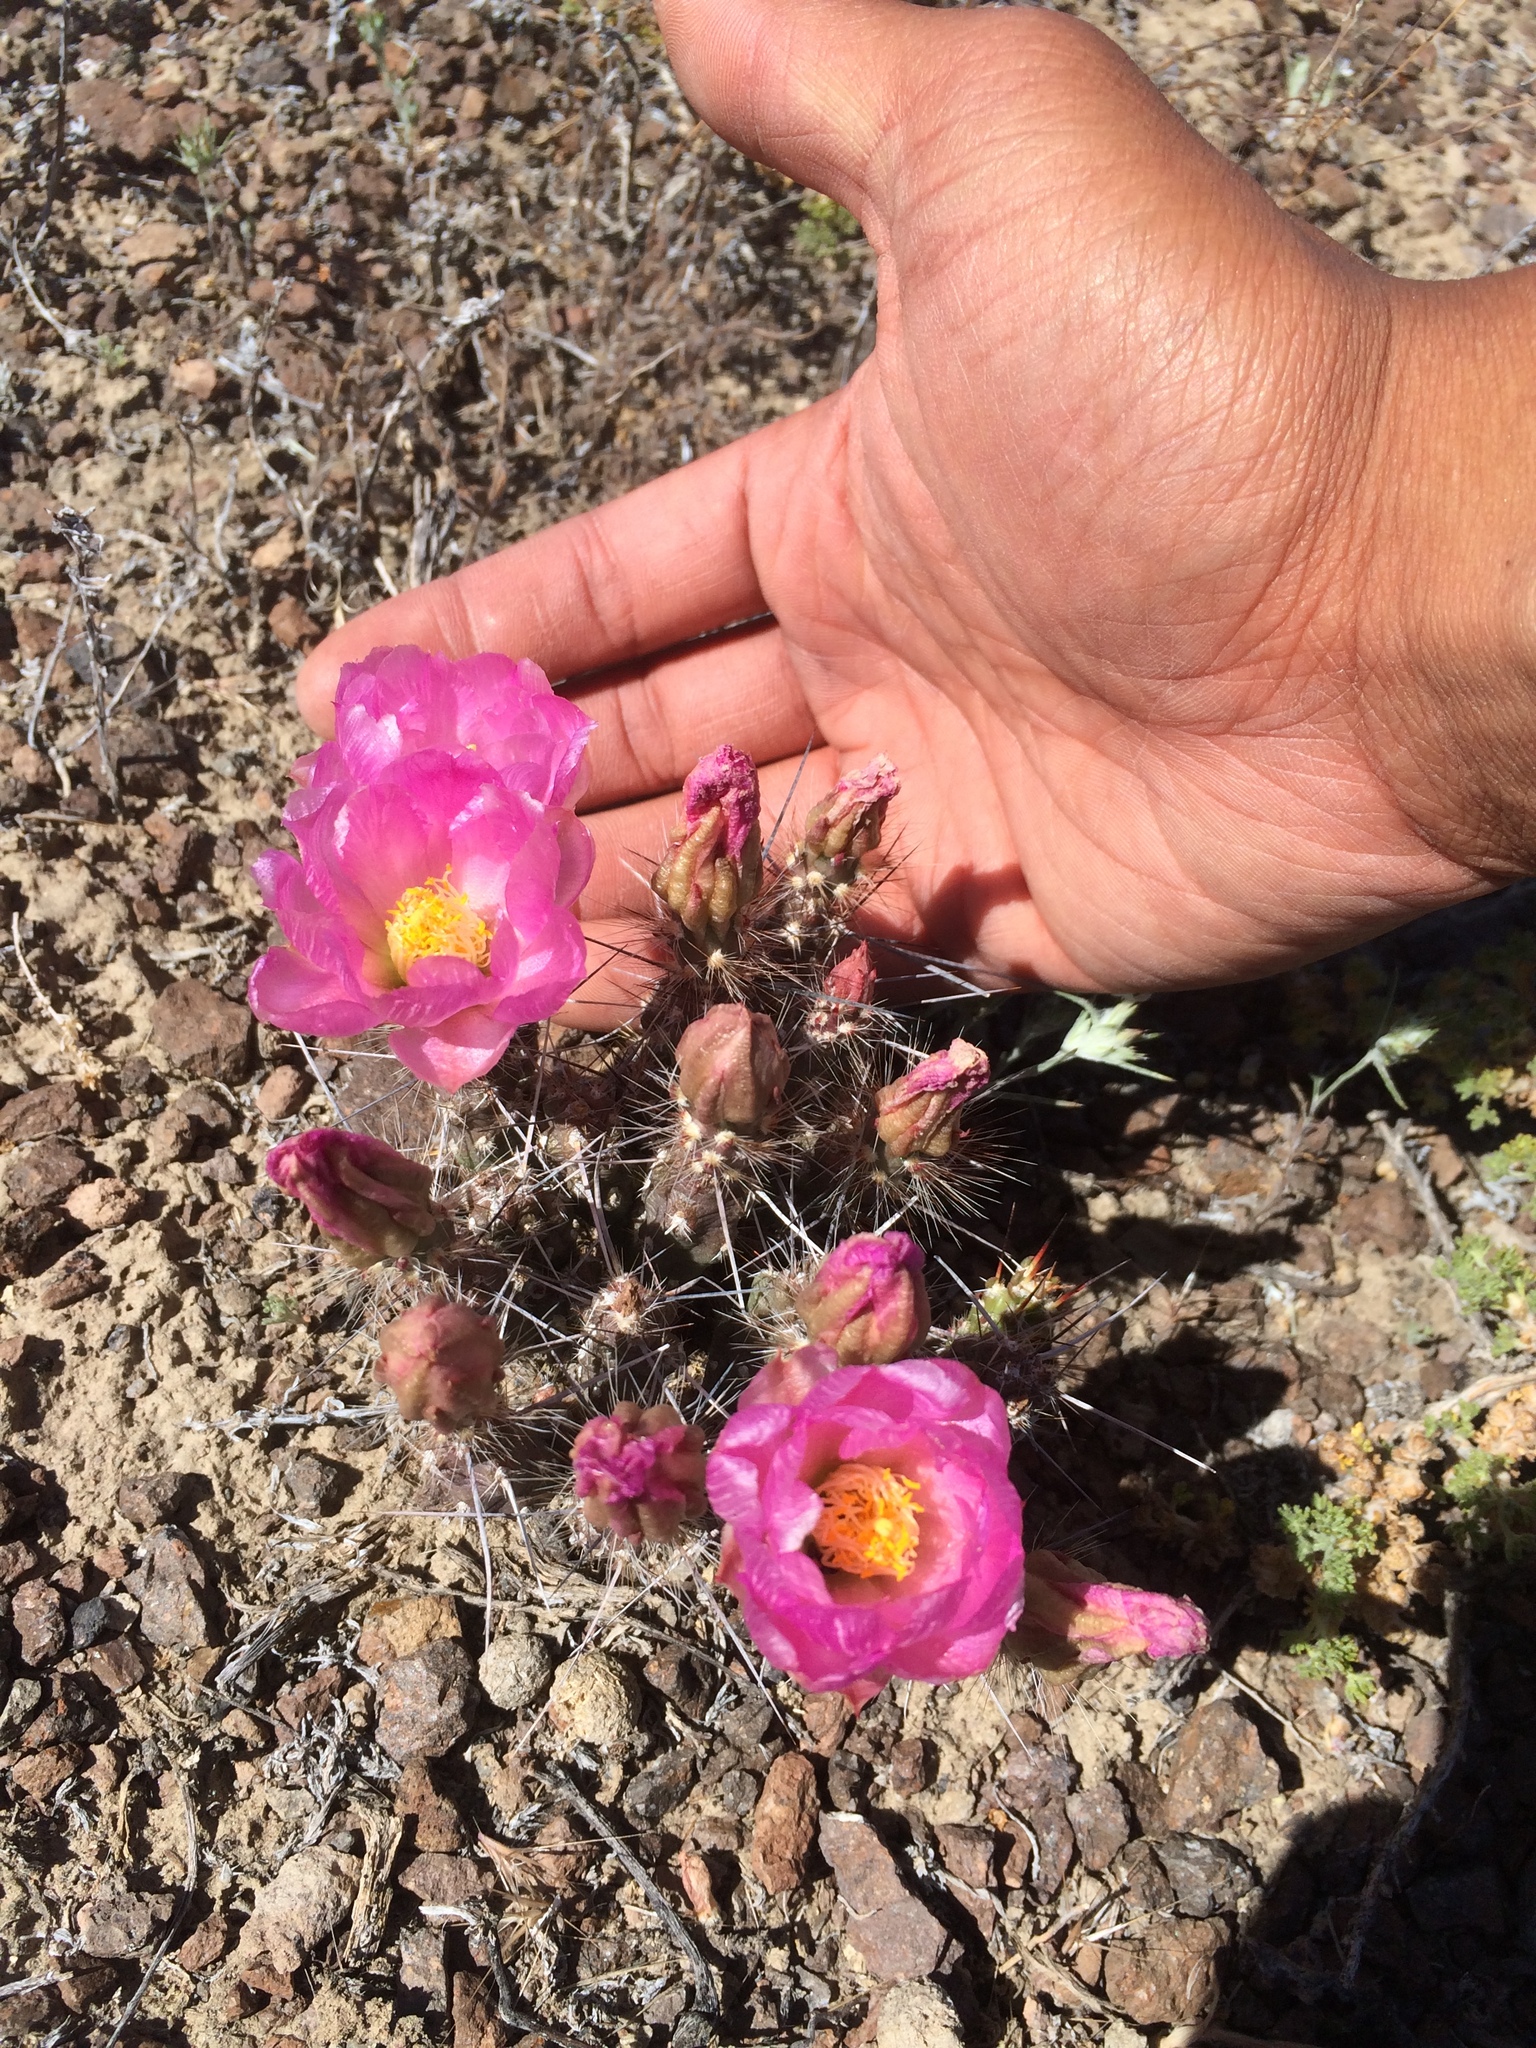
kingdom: Plantae
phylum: Tracheophyta
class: Magnoliopsida
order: Caryophyllales
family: Cactaceae
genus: Micropuntia
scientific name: Micropuntia pulchella
